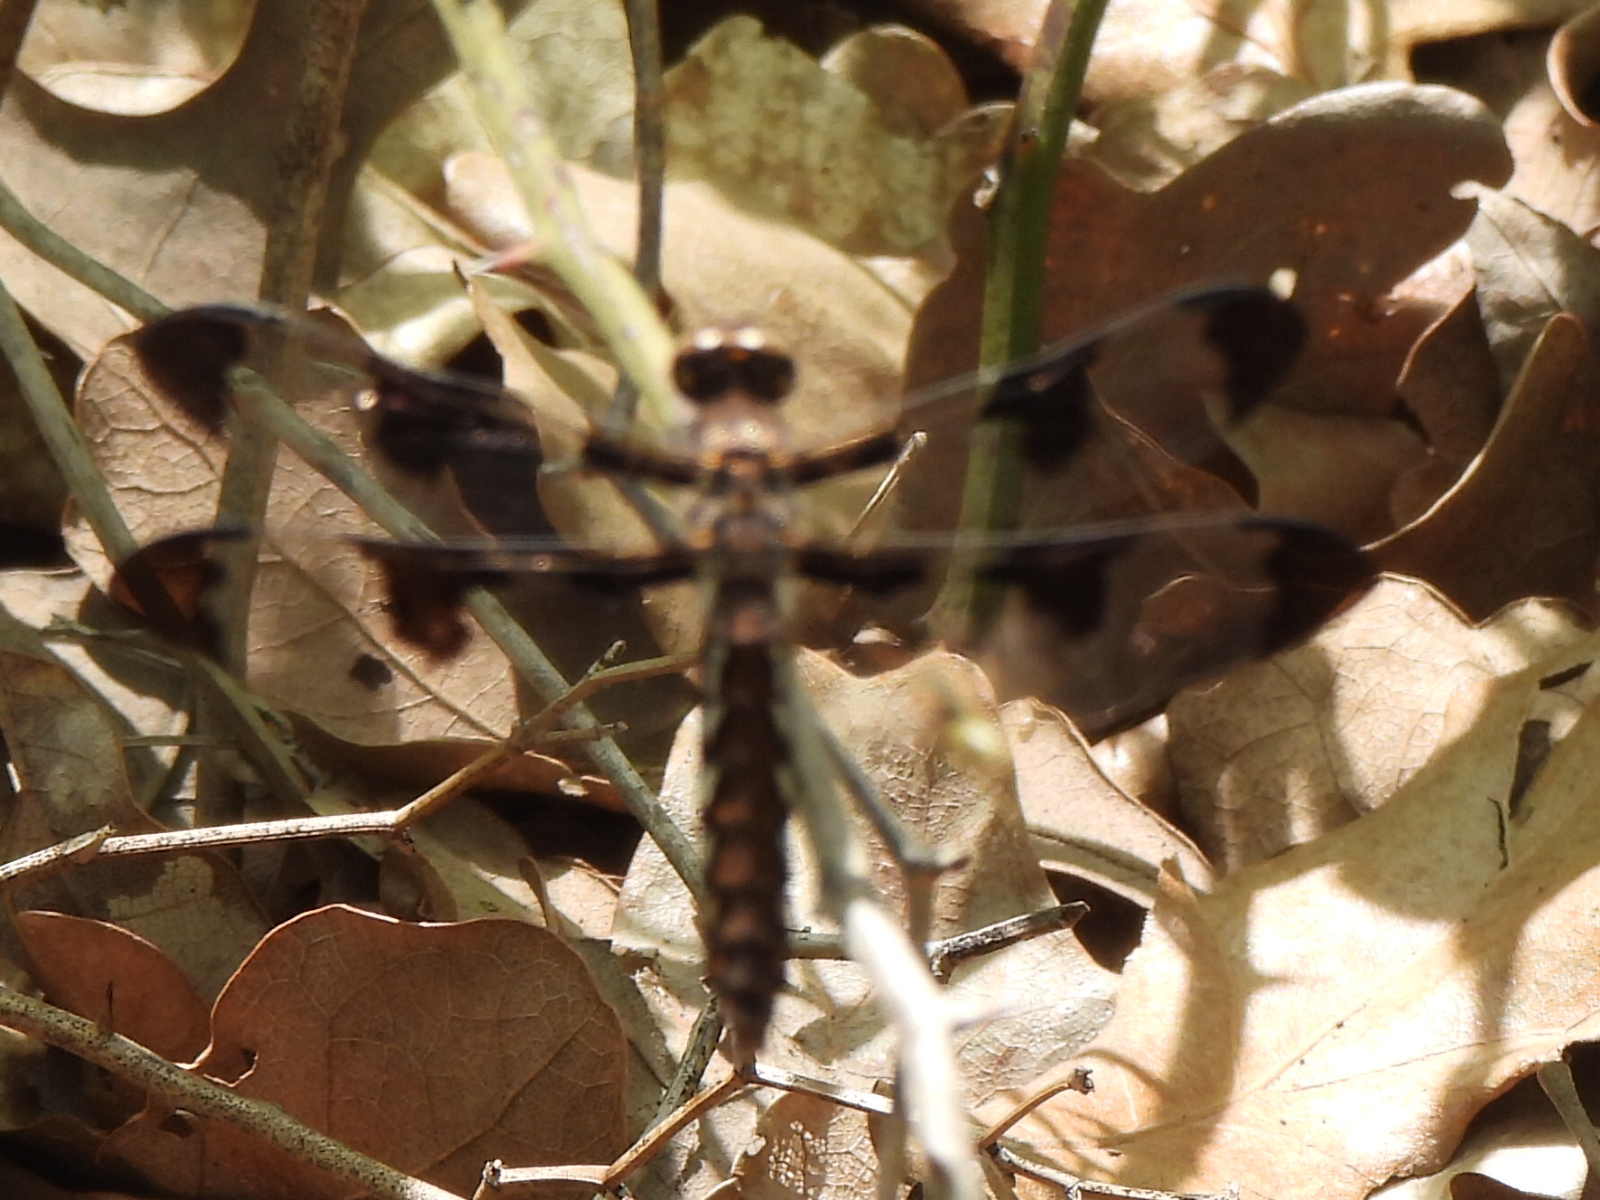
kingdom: Animalia
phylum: Arthropoda
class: Insecta
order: Odonata
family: Libellulidae
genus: Plathemis
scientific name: Plathemis lydia
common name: Common whitetail
